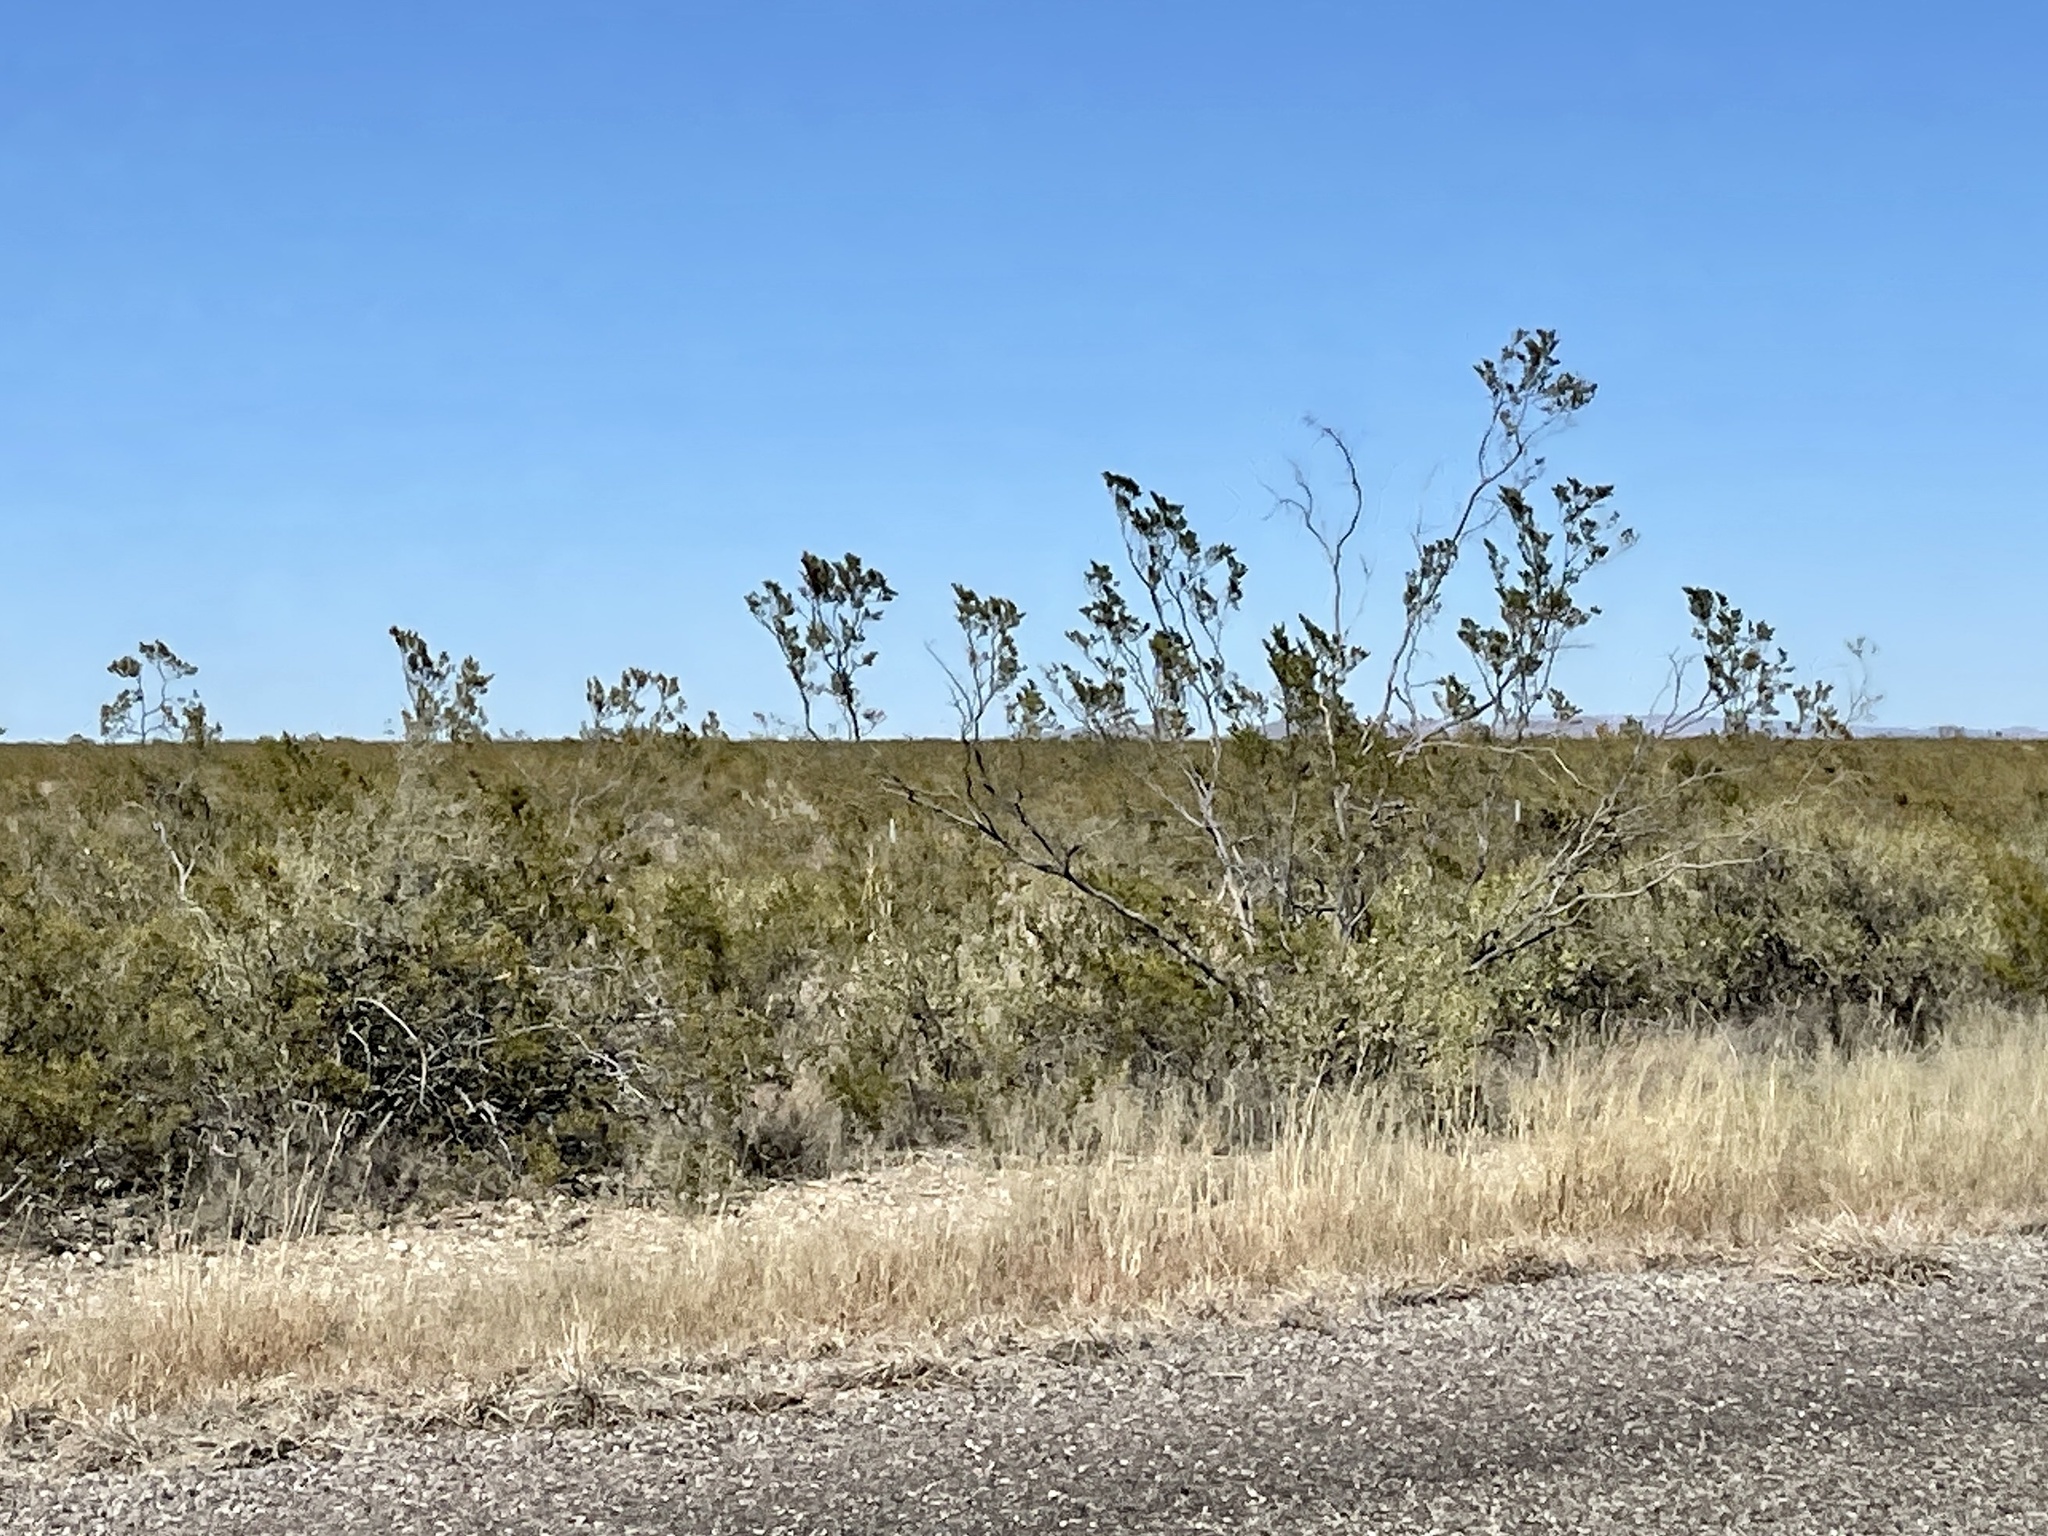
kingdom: Plantae
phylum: Tracheophyta
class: Magnoliopsida
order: Zygophyllales
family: Zygophyllaceae
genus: Larrea
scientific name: Larrea tridentata
